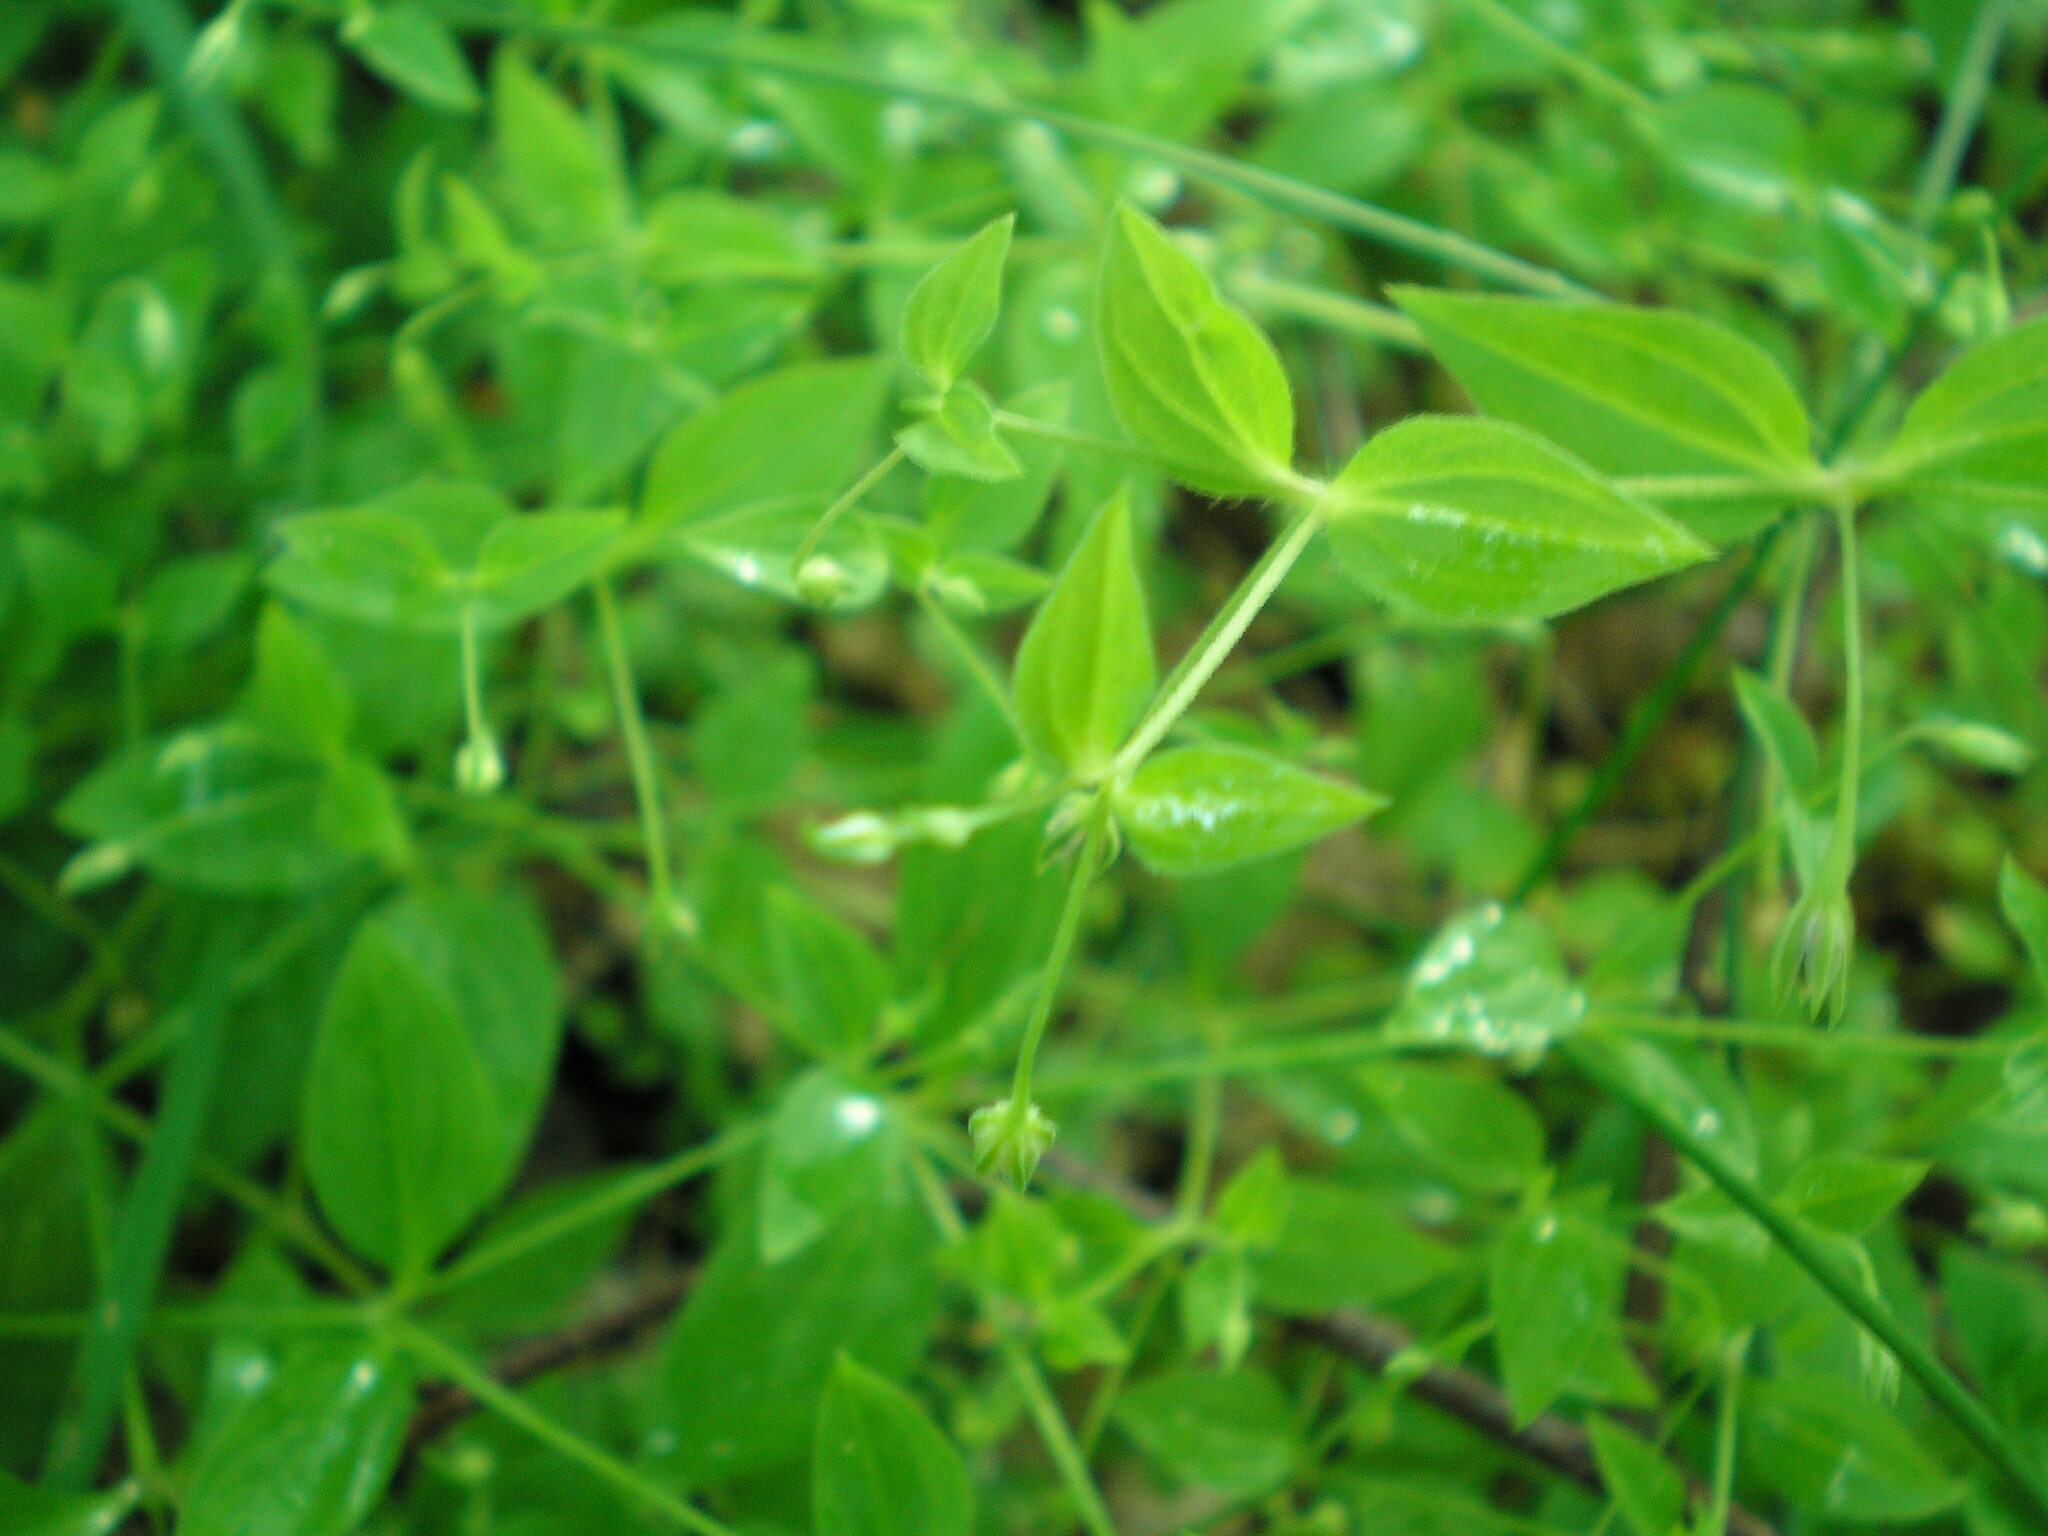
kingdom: Plantae
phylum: Tracheophyta
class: Magnoliopsida
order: Caryophyllales
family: Caryophyllaceae
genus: Moehringia
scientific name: Moehringia trinervia
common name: Three-nerved sandwort
